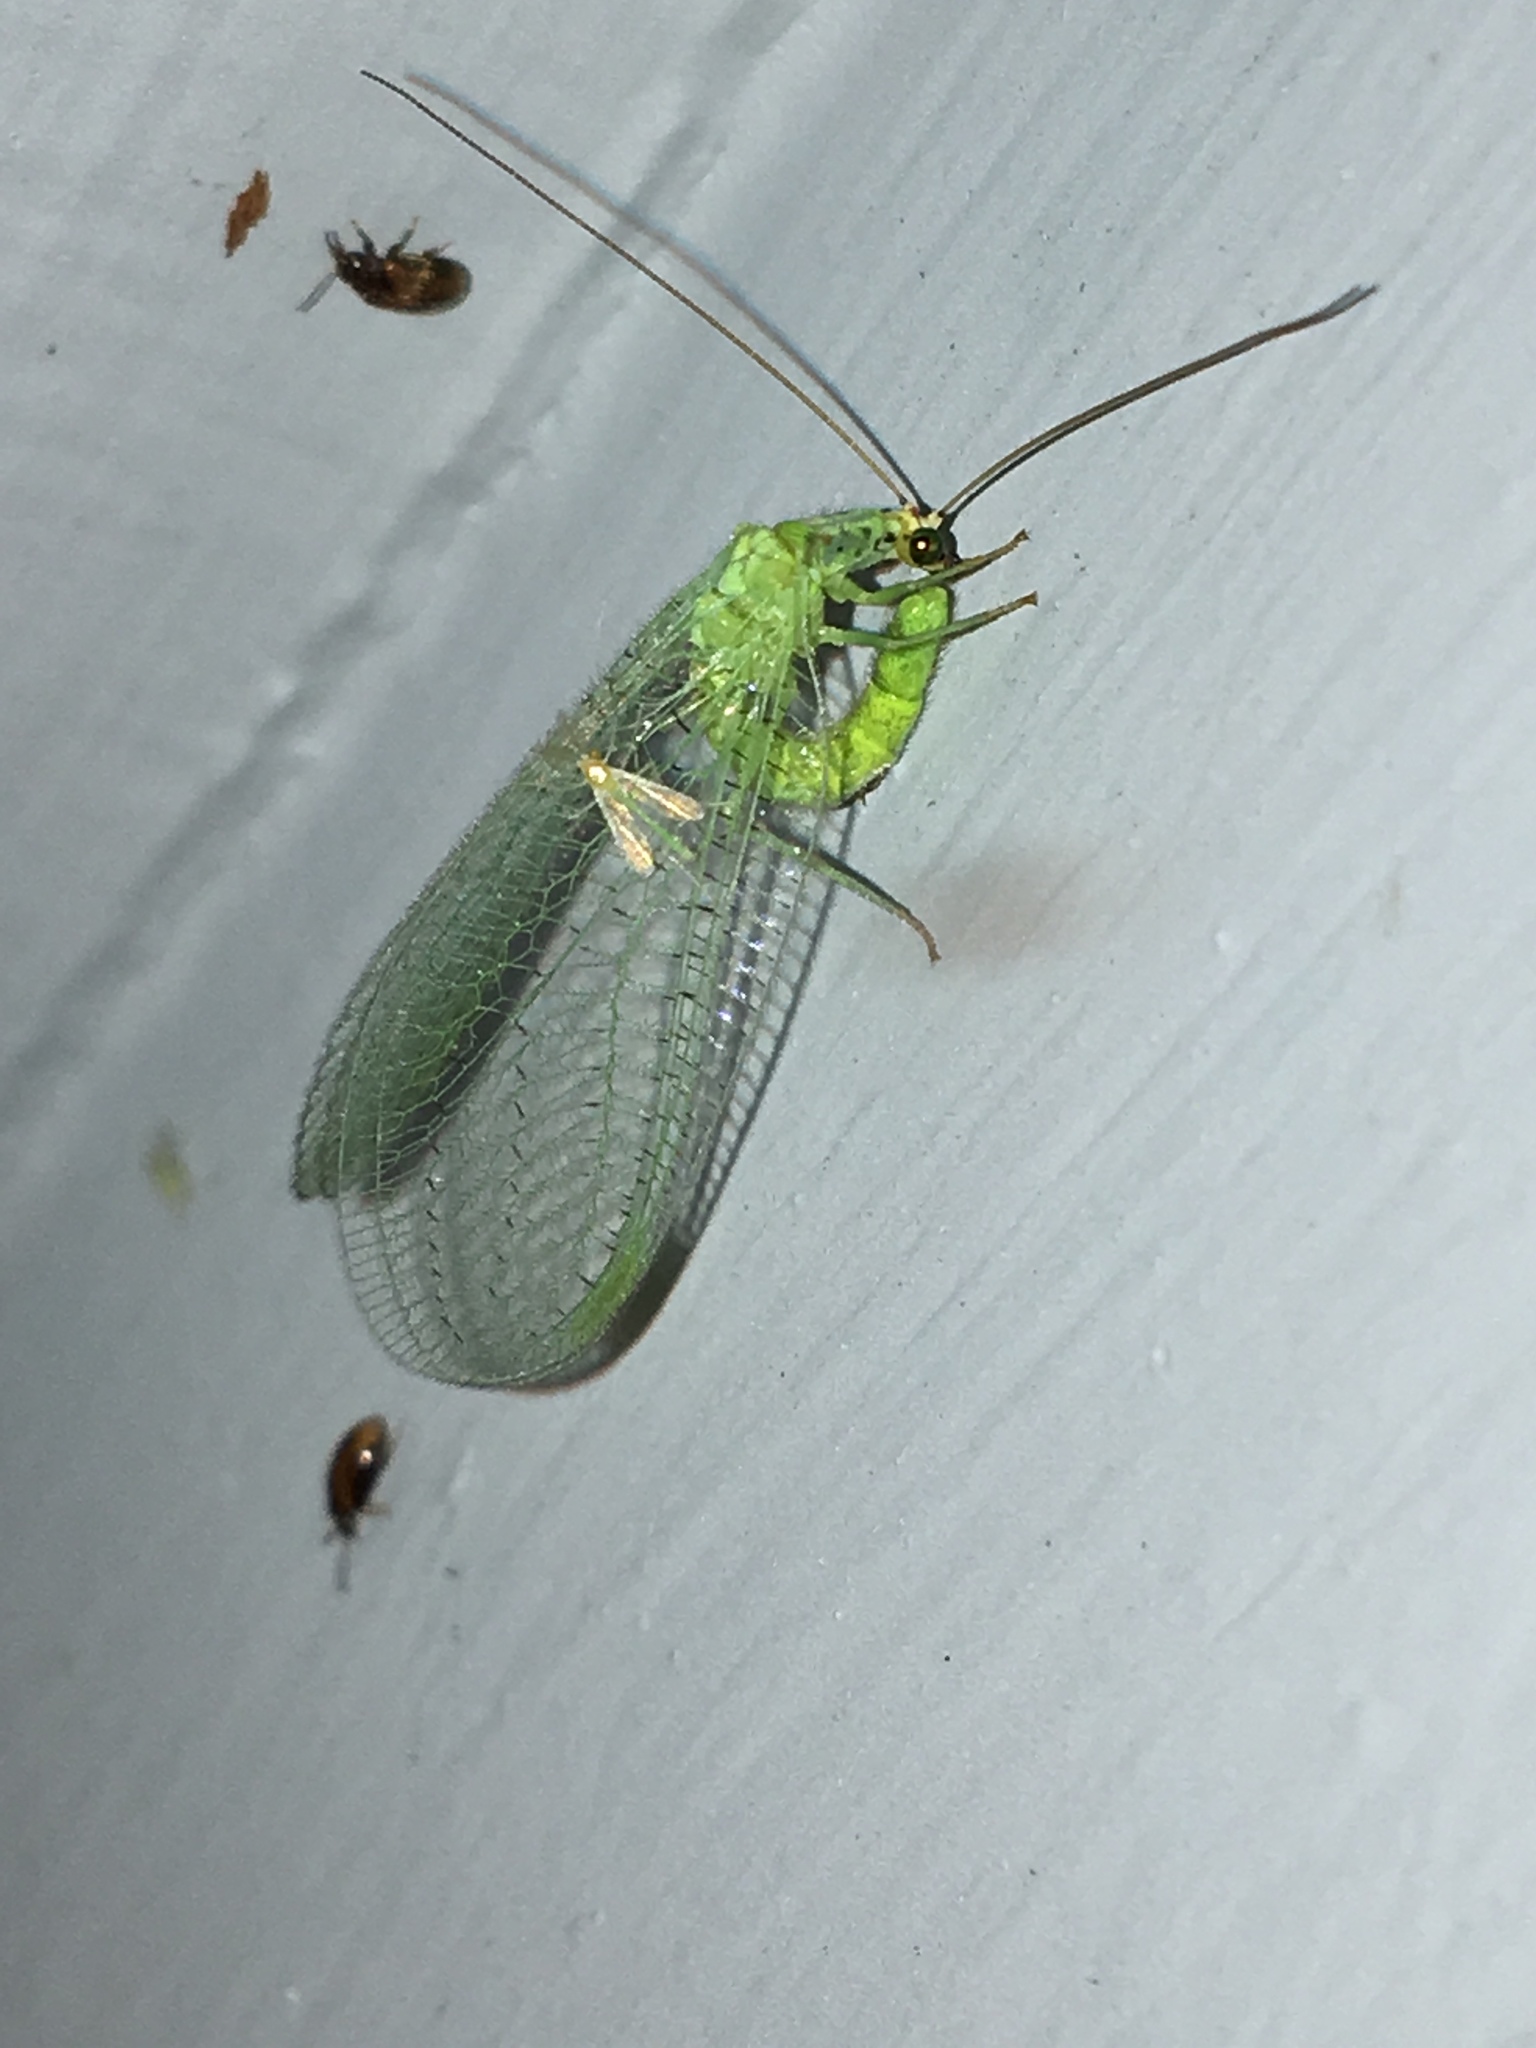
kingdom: Animalia
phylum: Arthropoda
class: Insecta
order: Neuroptera
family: Chrysopidae
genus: Chrysopa
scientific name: Chrysopa oculata
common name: Golden-eyed lacewing
